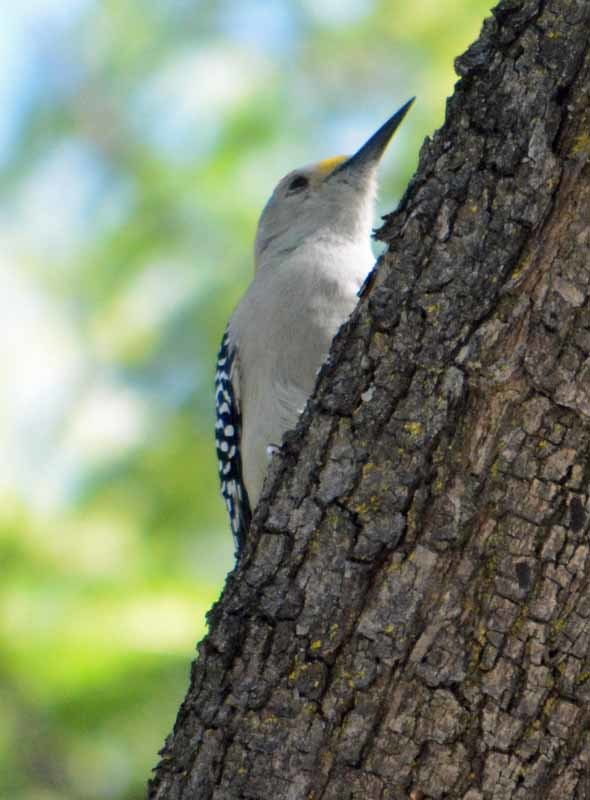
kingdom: Animalia
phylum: Chordata
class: Aves
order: Piciformes
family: Picidae
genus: Melanerpes
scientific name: Melanerpes aurifrons
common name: Golden-fronted woodpecker
